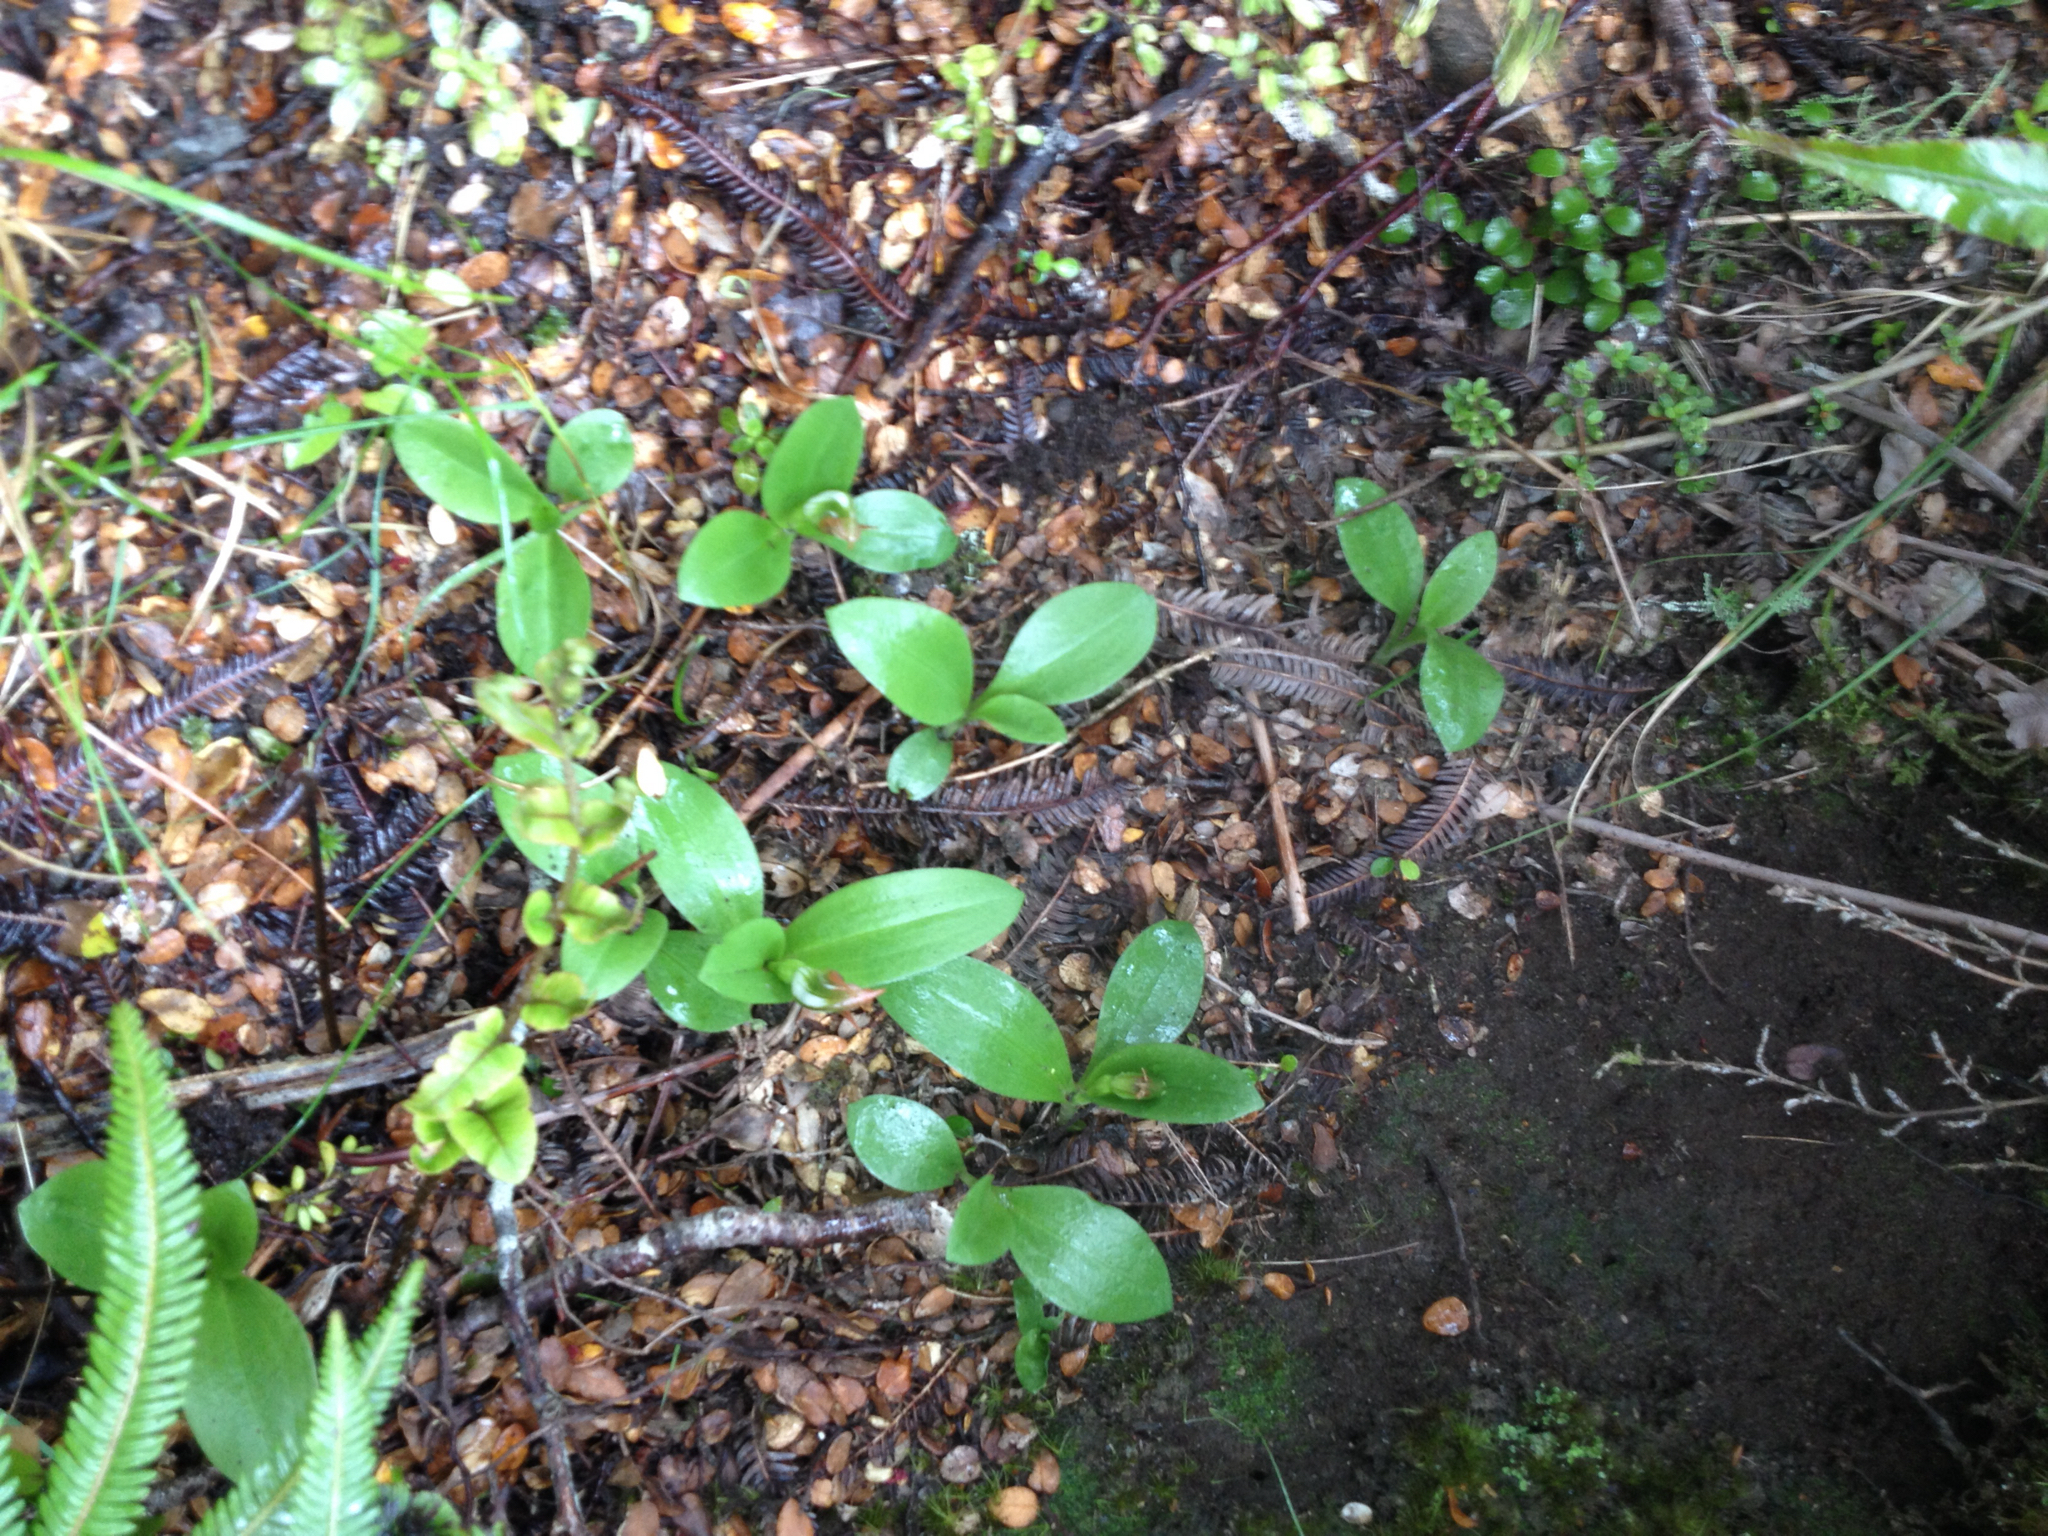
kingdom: Plantae
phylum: Tracheophyta
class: Liliopsida
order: Asparagales
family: Orchidaceae
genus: Pterostylis
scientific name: Pterostylis humilis
